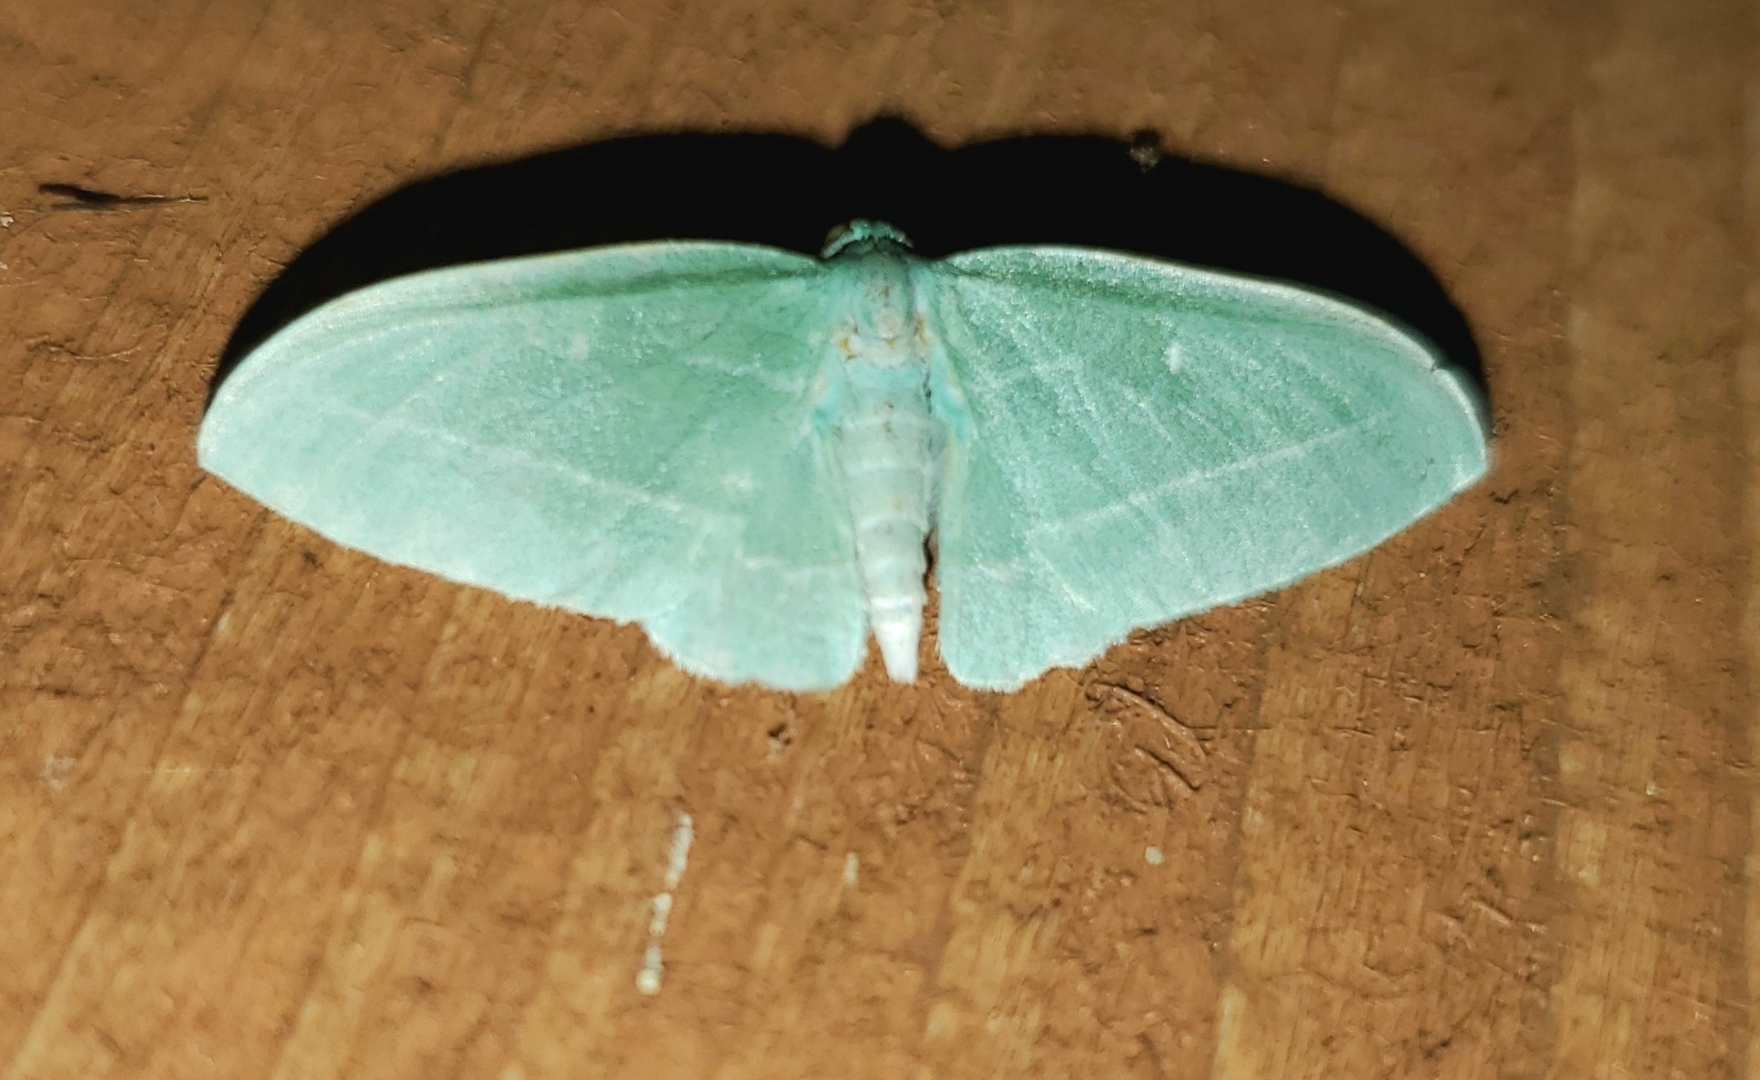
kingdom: Animalia
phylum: Arthropoda
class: Insecta
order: Lepidoptera
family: Geometridae
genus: Dyspteris
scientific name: Dyspteris abortivaria
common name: Bad-wing
